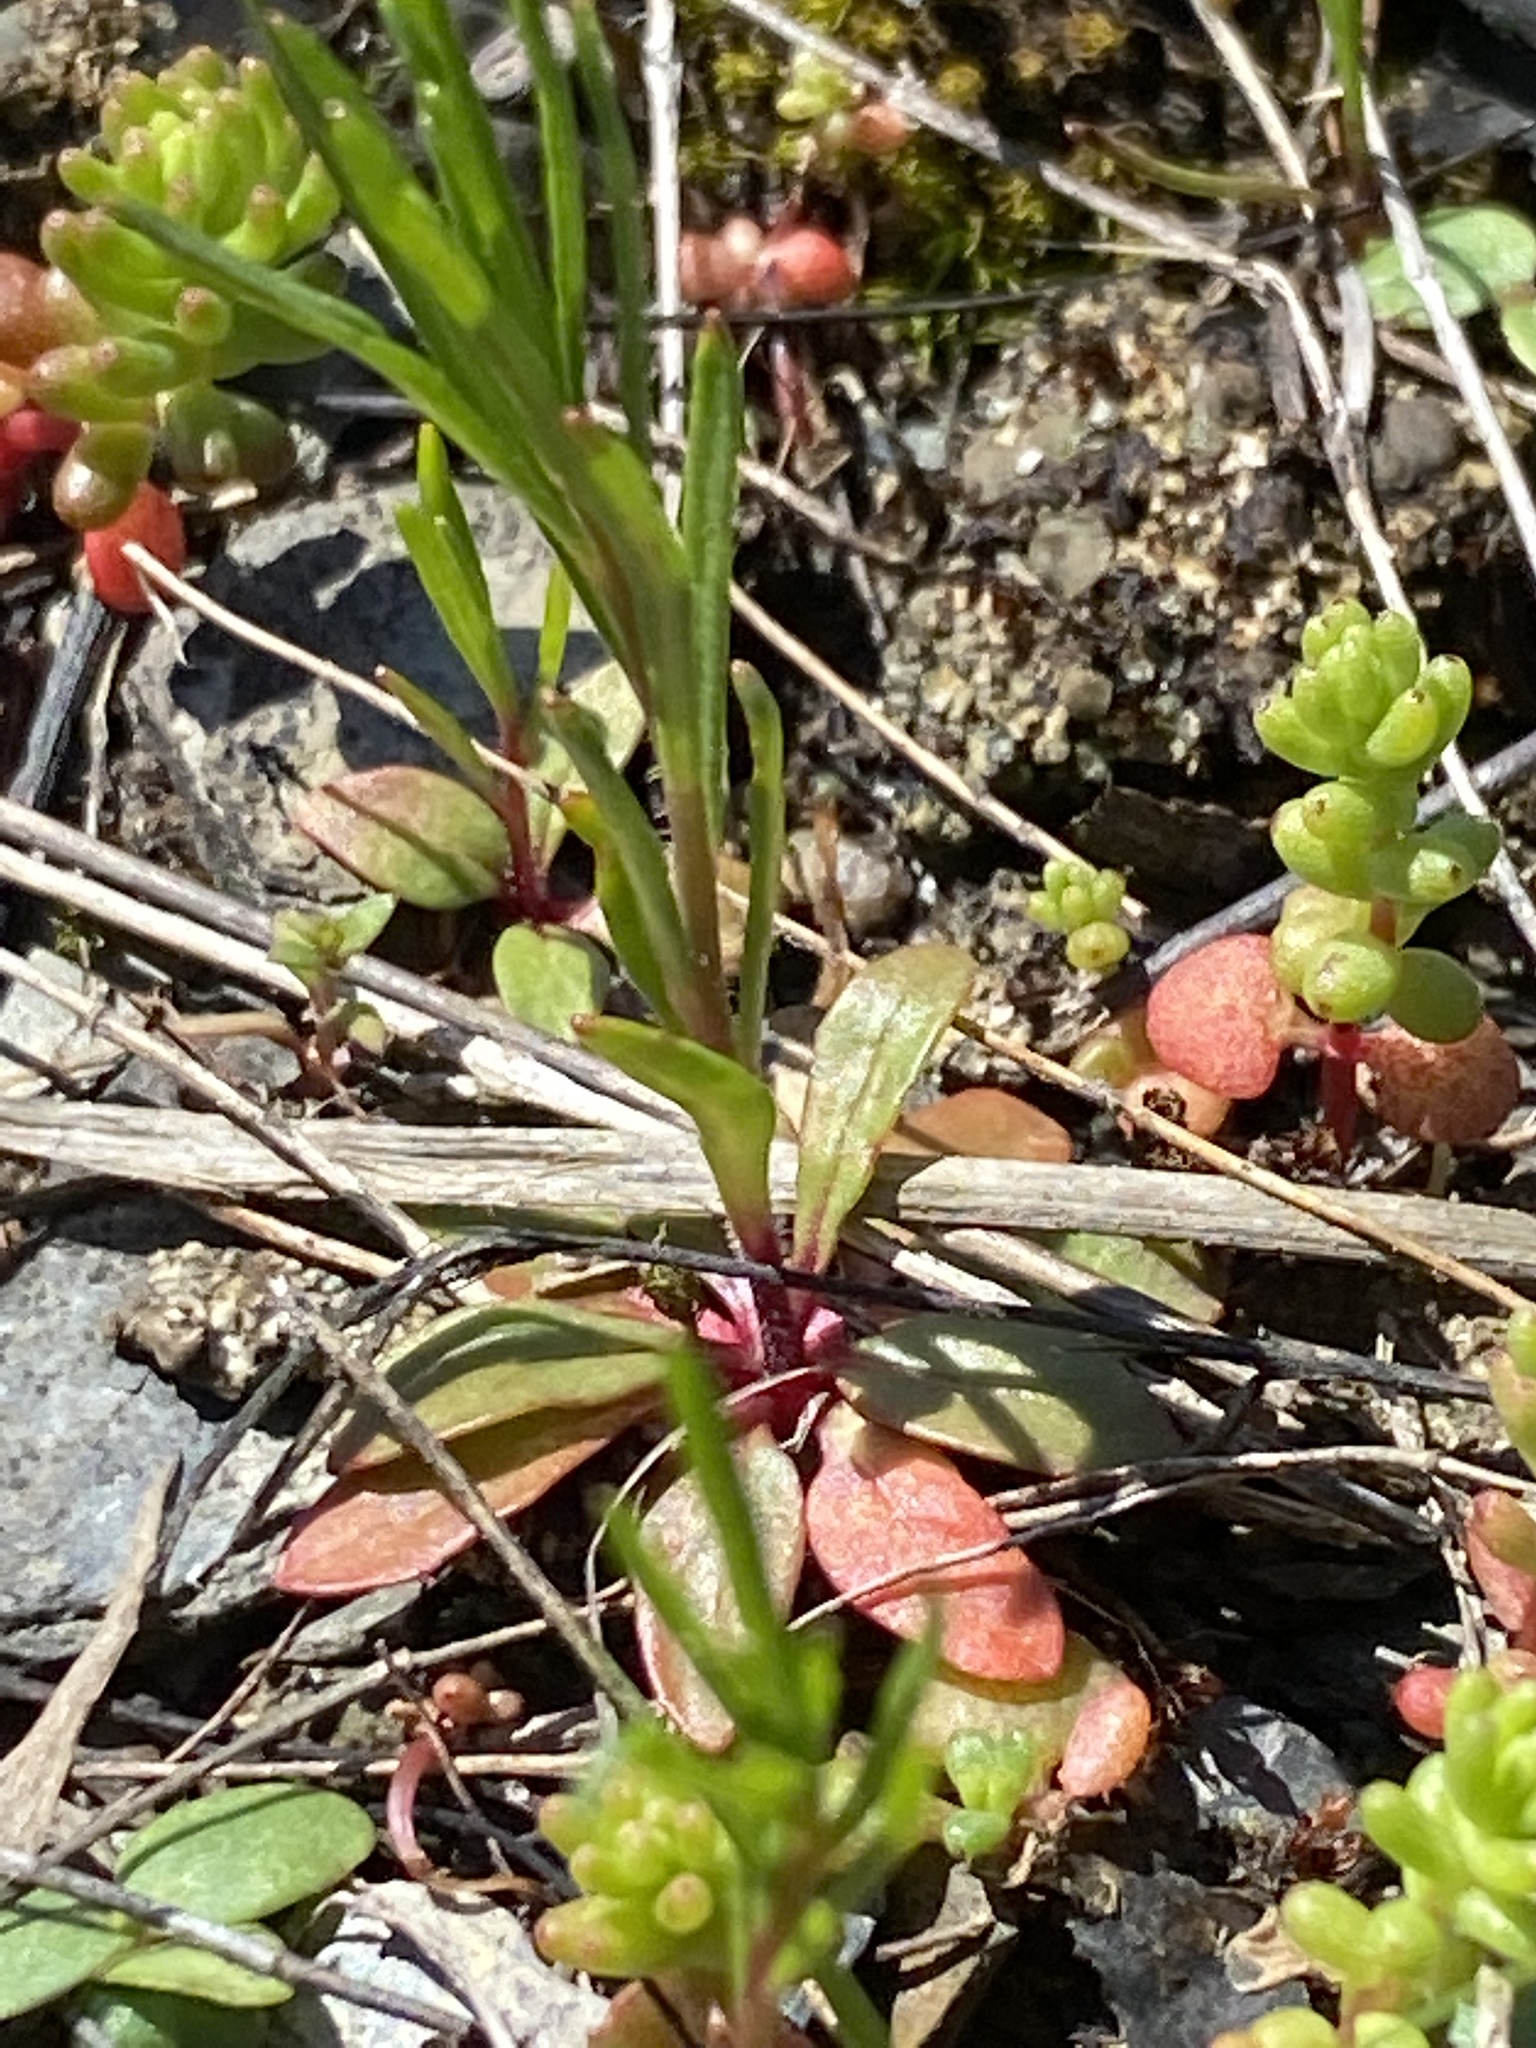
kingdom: Plantae
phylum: Tracheophyta
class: Magnoliopsida
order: Myrtales
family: Onagraceae
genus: Oenothera
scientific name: Oenothera linifolia
